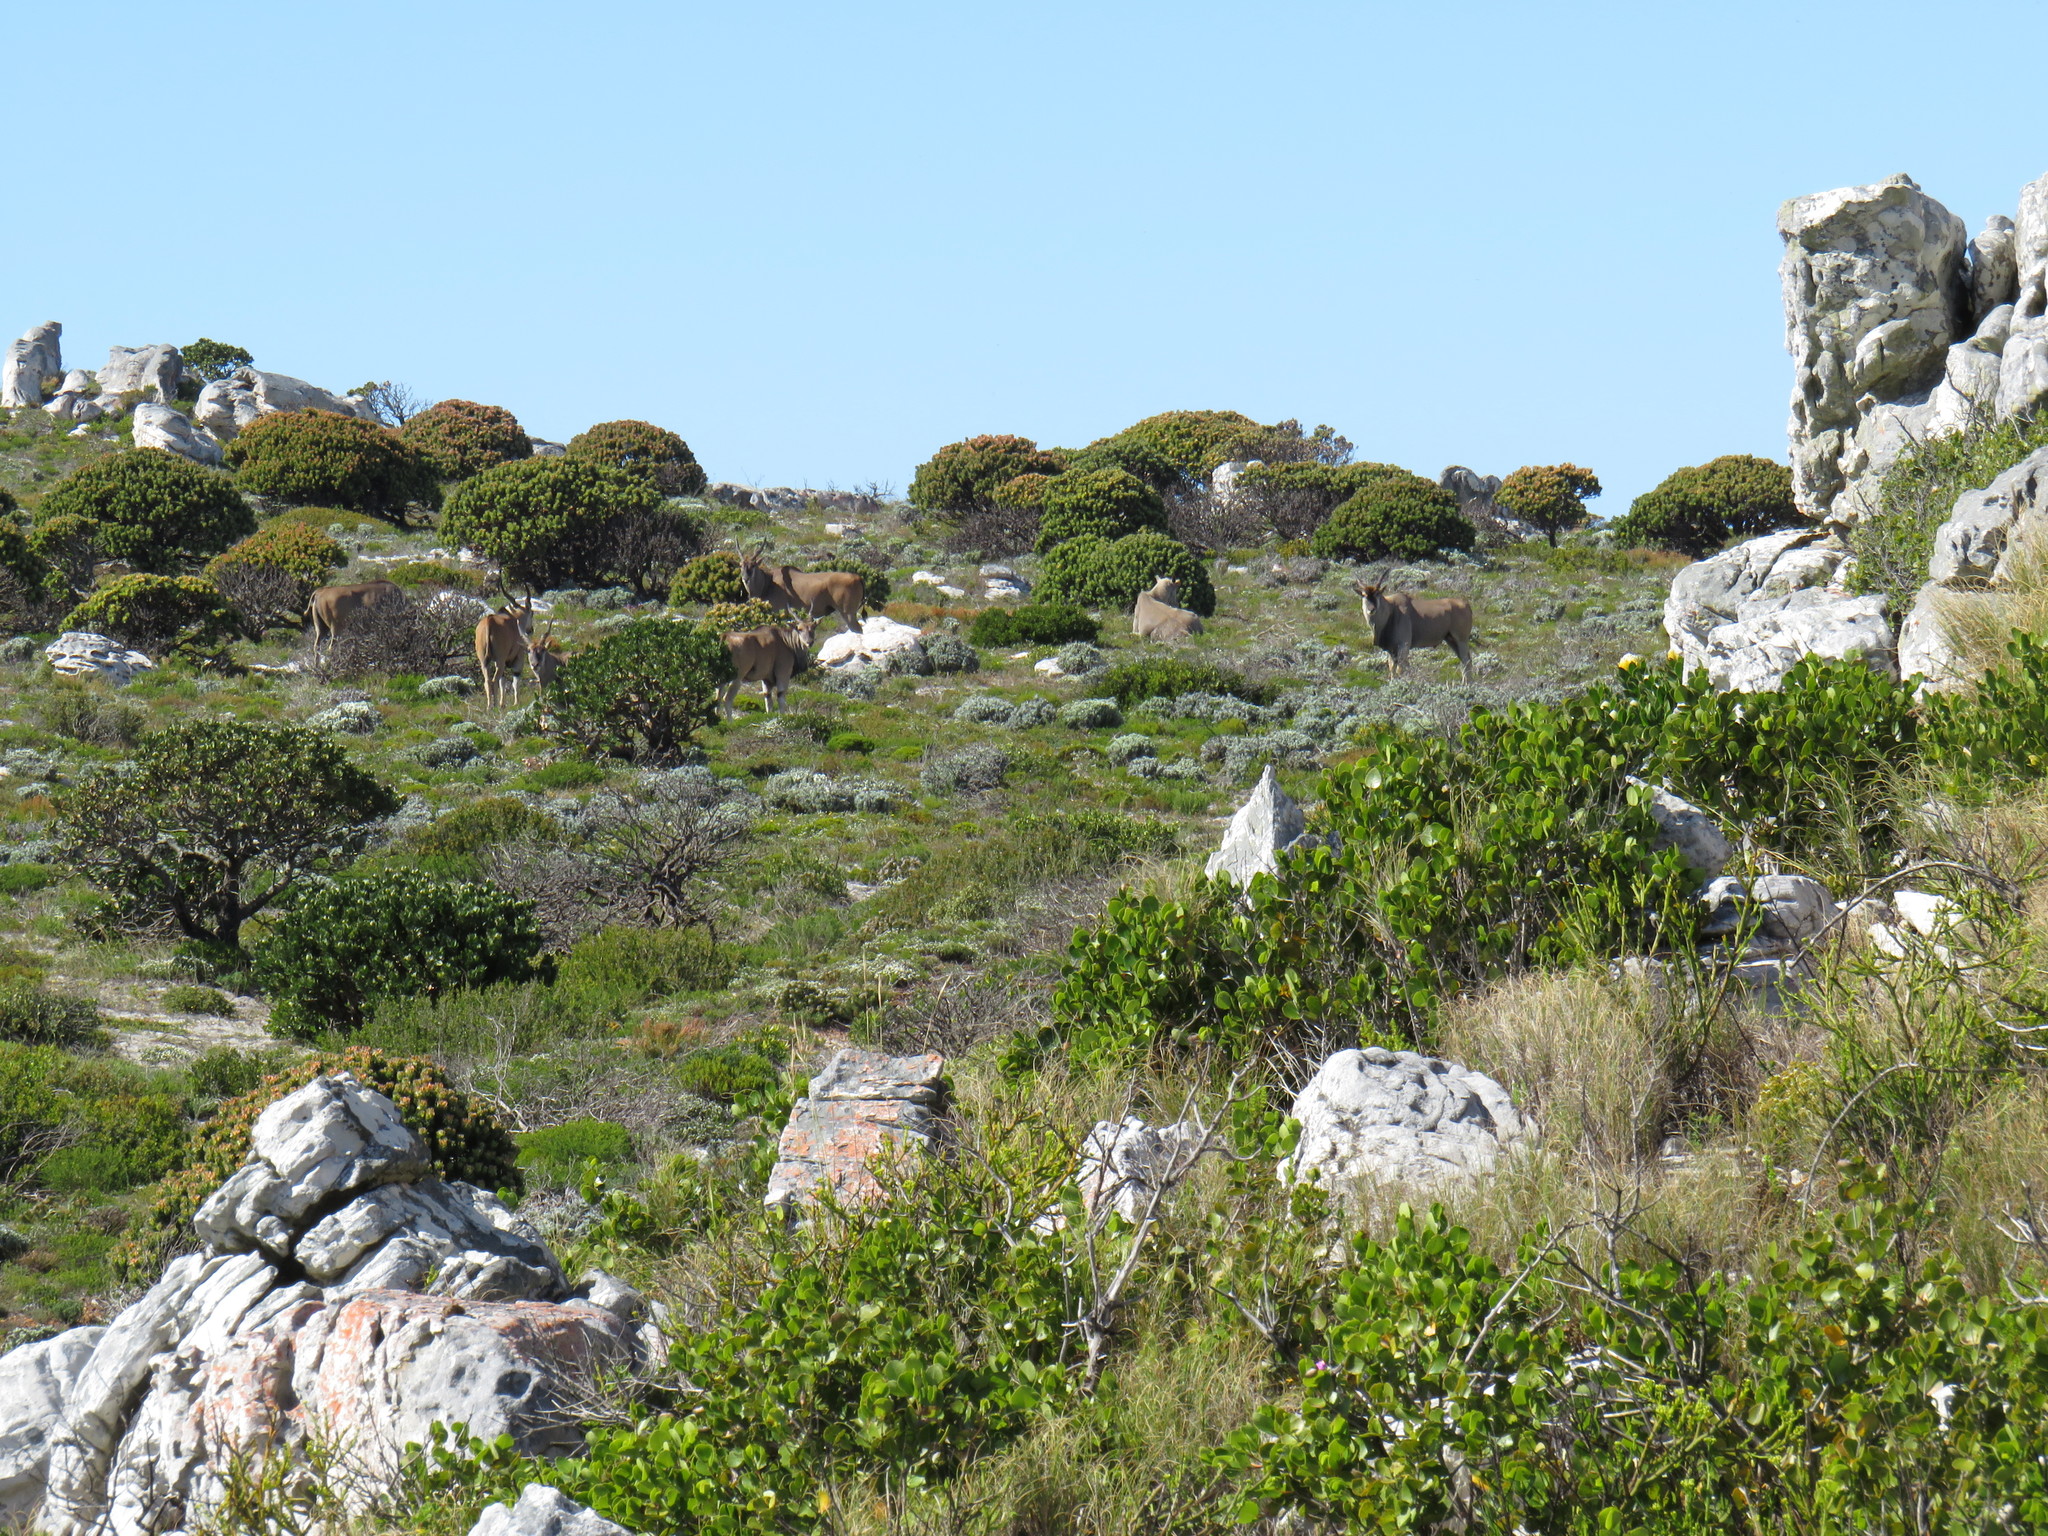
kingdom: Animalia
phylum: Chordata
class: Mammalia
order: Artiodactyla
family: Bovidae
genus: Taurotragus
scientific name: Taurotragus oryx
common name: Common eland
